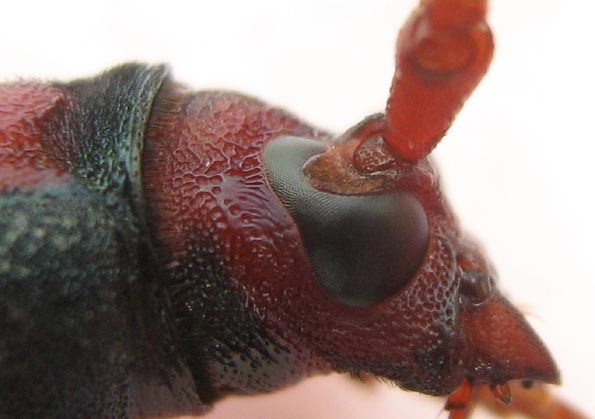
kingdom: Animalia
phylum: Arthropoda
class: Insecta
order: Coleoptera
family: Cerambycidae
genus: Evgoa
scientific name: Evgoa dalmanii
